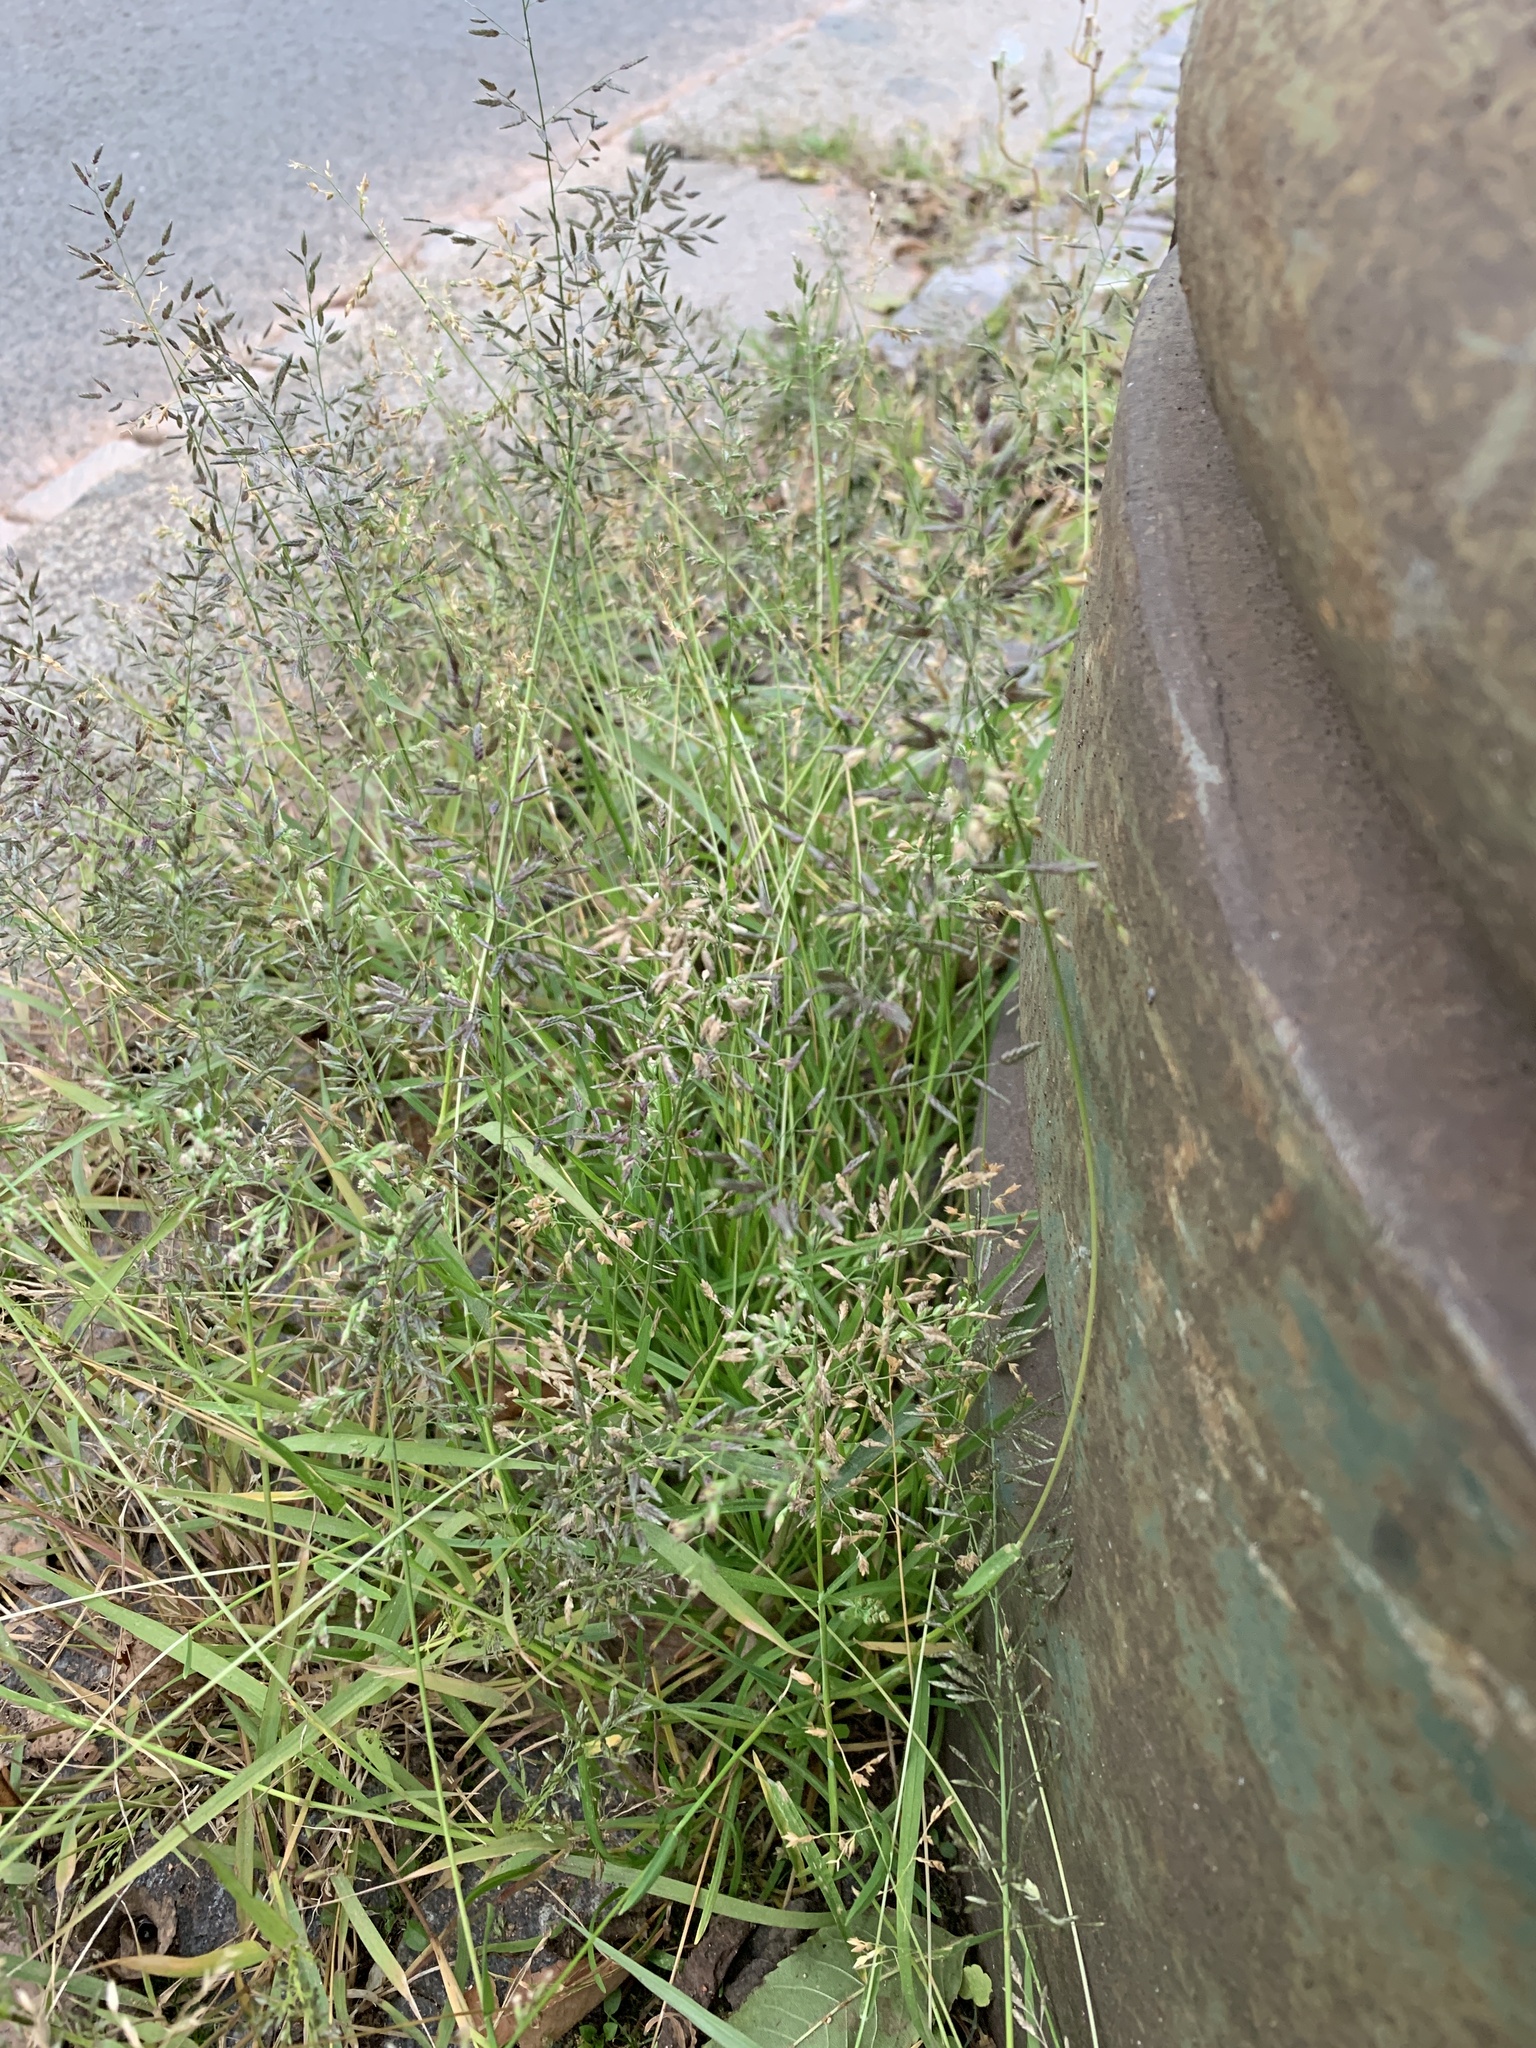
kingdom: Plantae
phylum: Tracheophyta
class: Liliopsida
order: Poales
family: Poaceae
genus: Eragrostis
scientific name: Eragrostis minor
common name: Small love-grass
